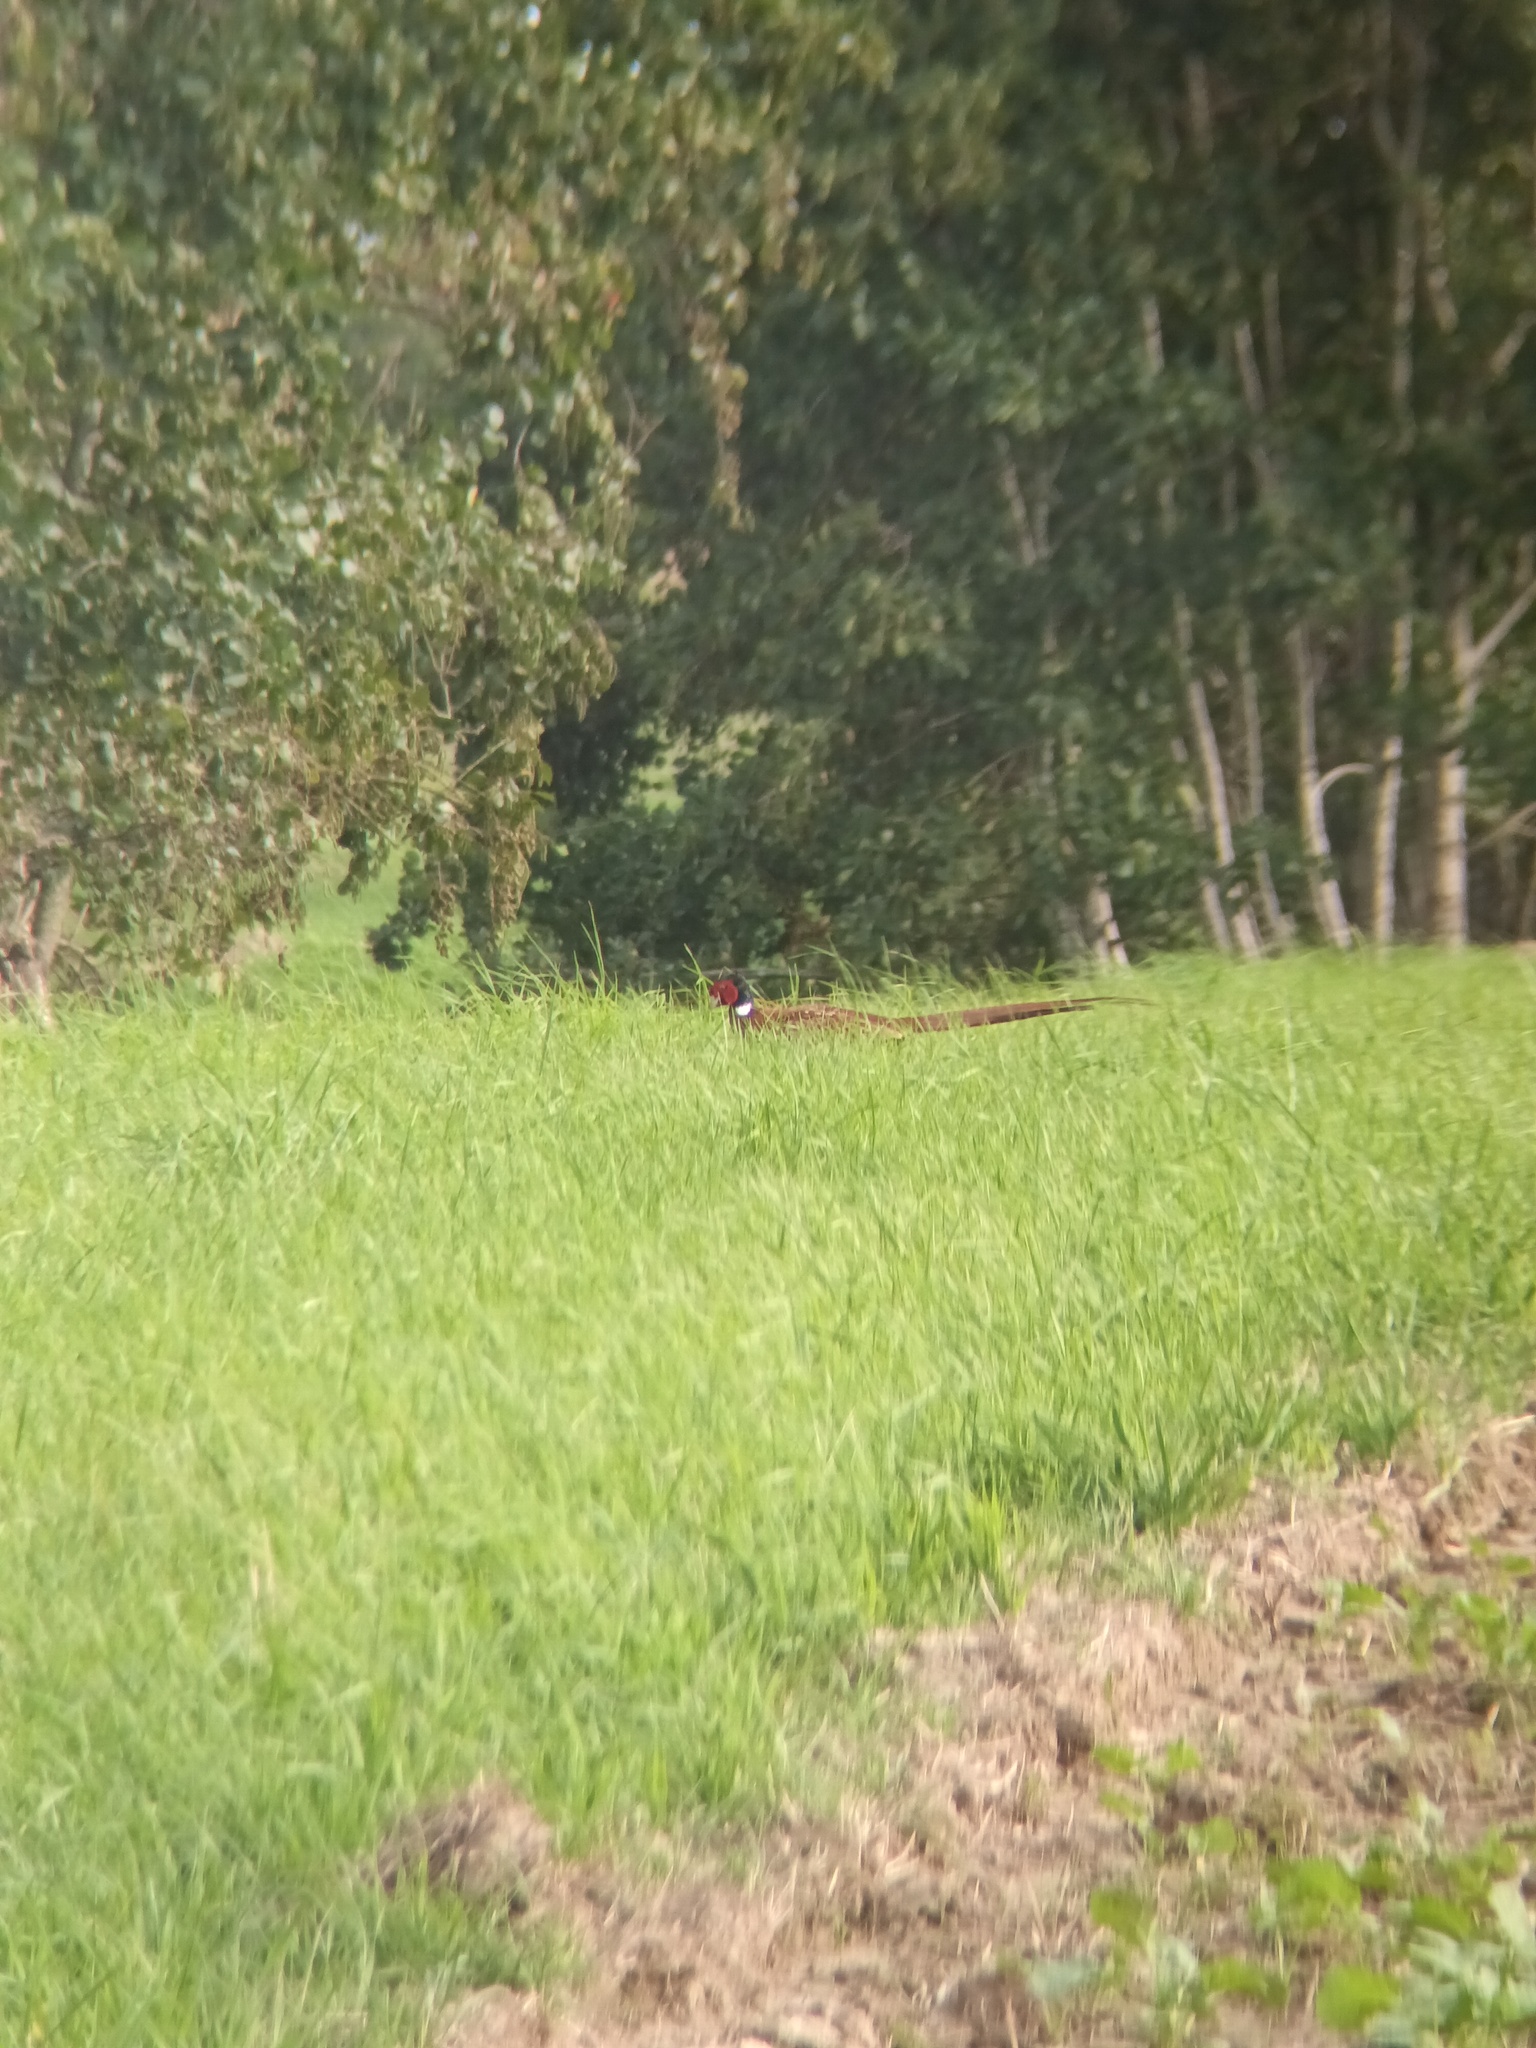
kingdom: Animalia
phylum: Chordata
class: Aves
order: Galliformes
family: Phasianidae
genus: Phasianus
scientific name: Phasianus colchicus
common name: Common pheasant
